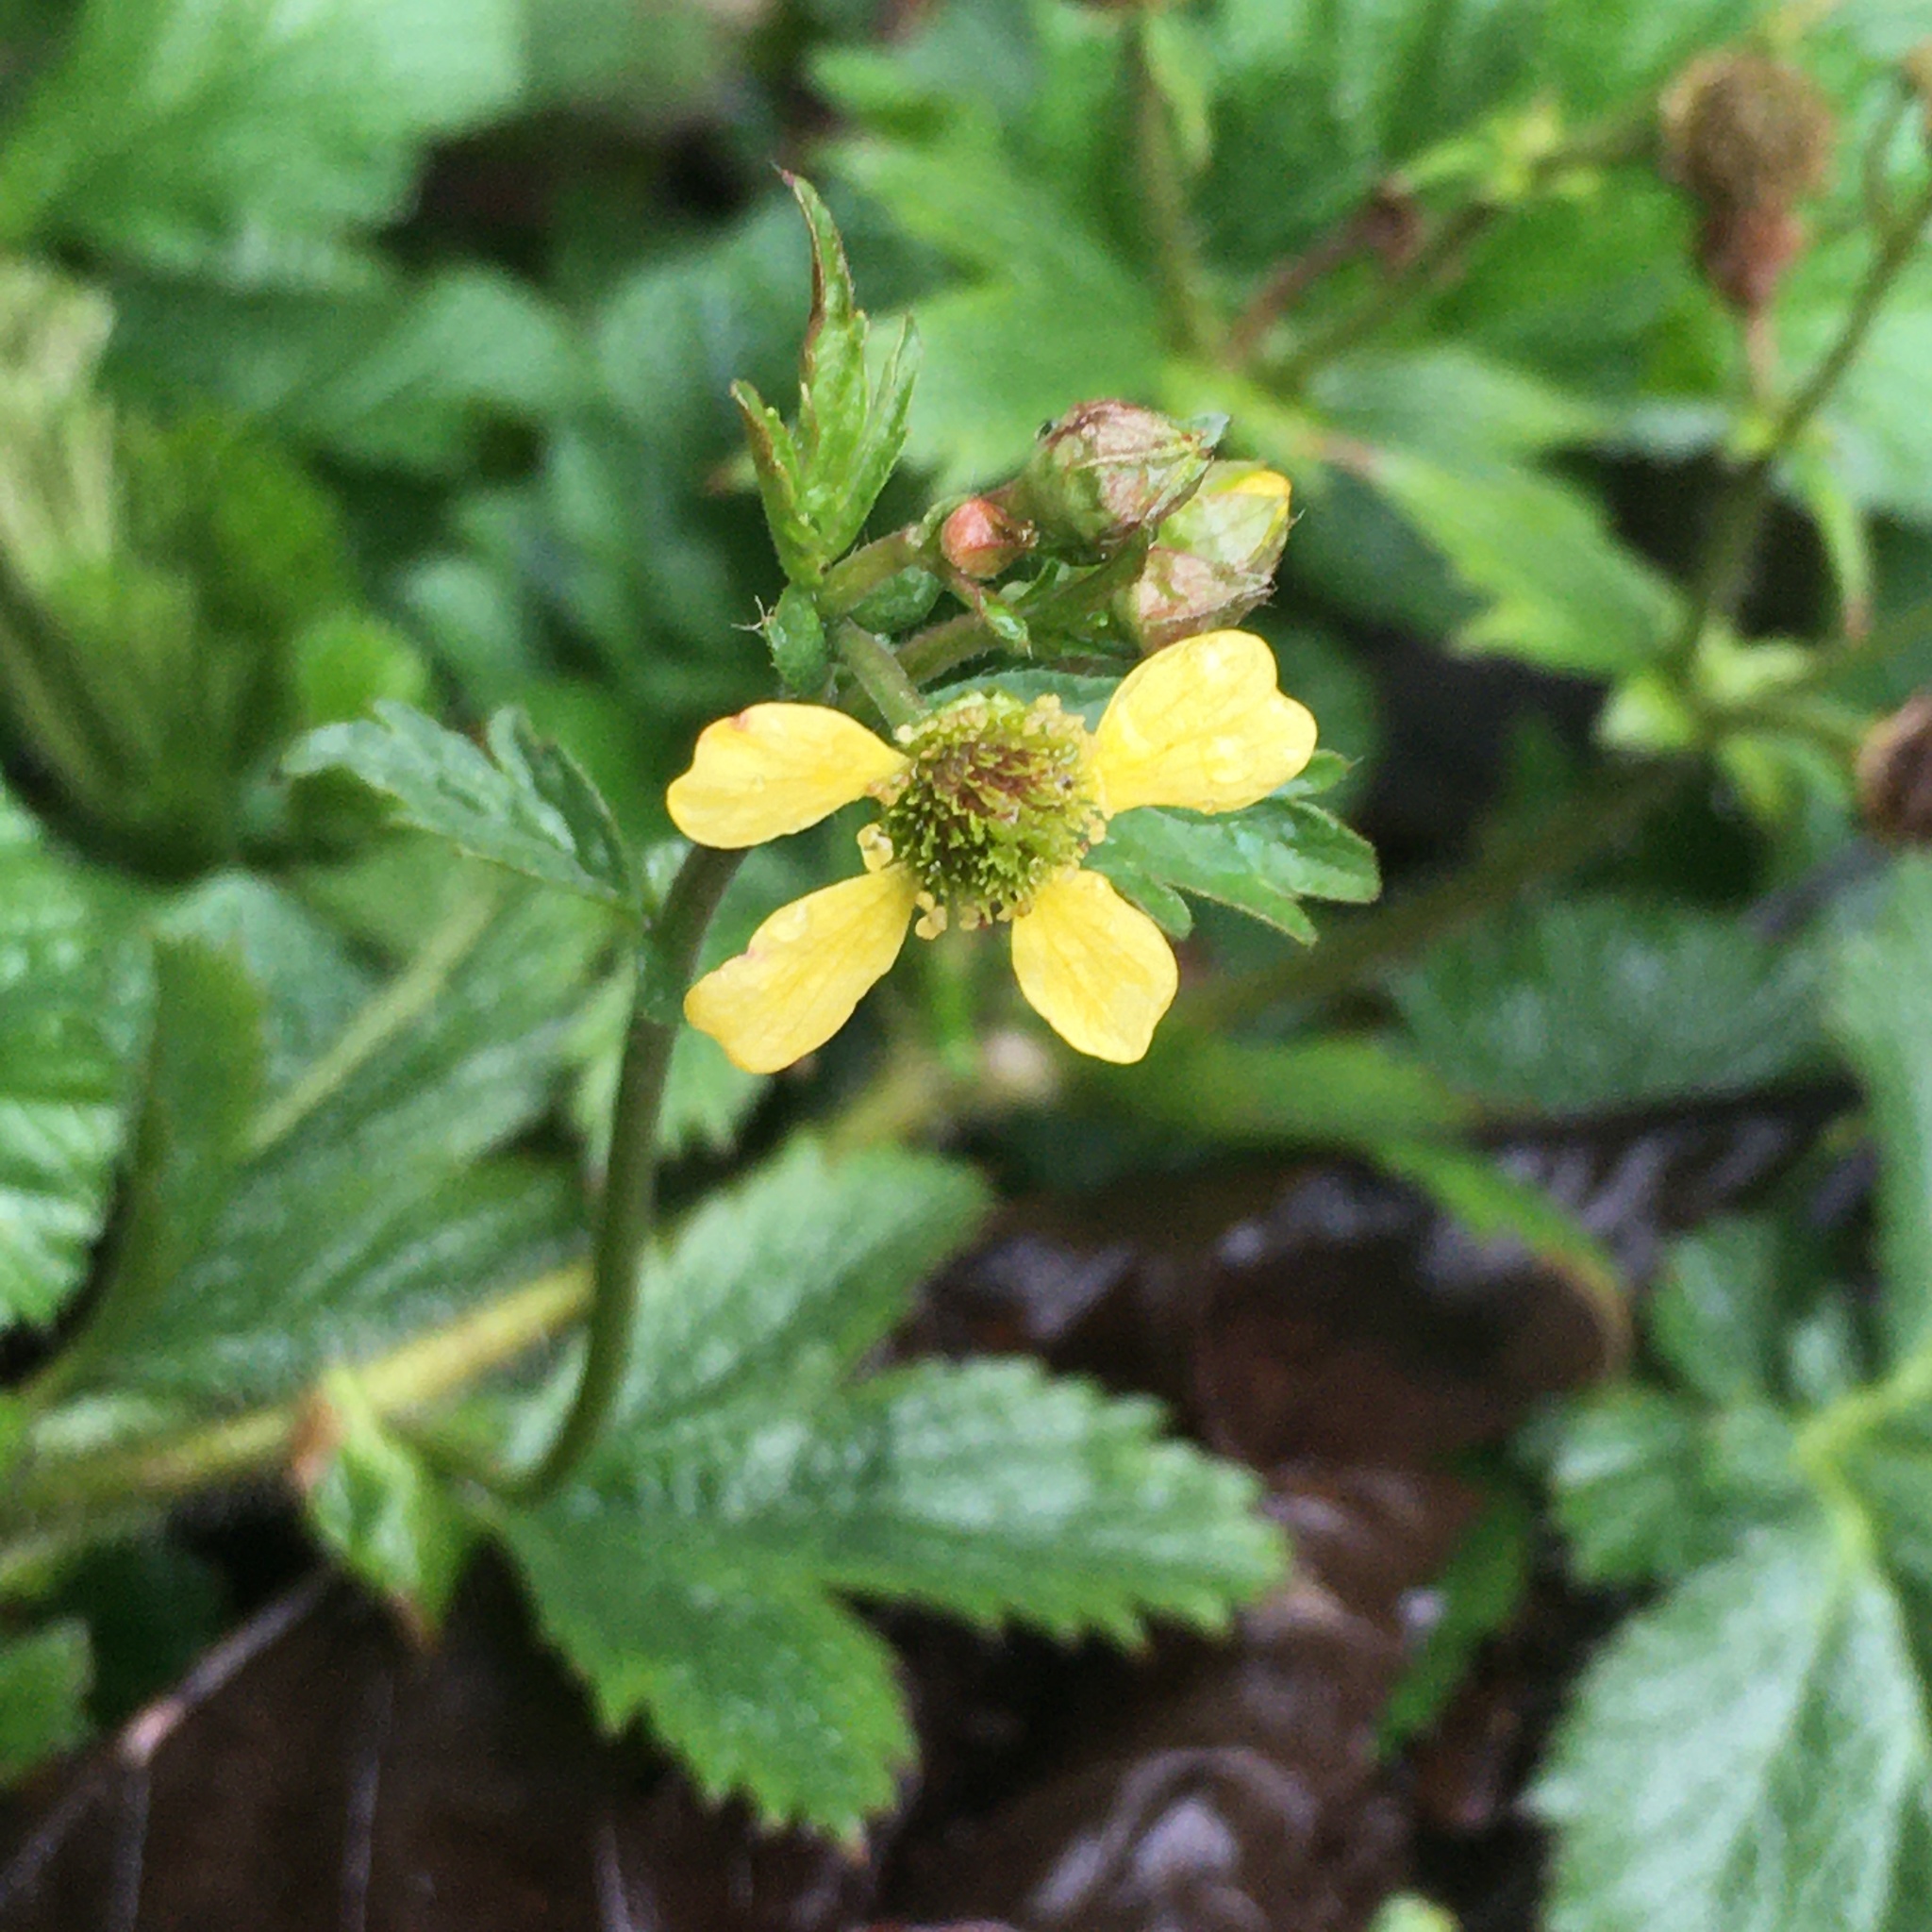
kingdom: Plantae
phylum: Tracheophyta
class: Magnoliopsida
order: Rosales
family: Rosaceae
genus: Geum
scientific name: Geum macrophyllum
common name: Large-leaved avens
